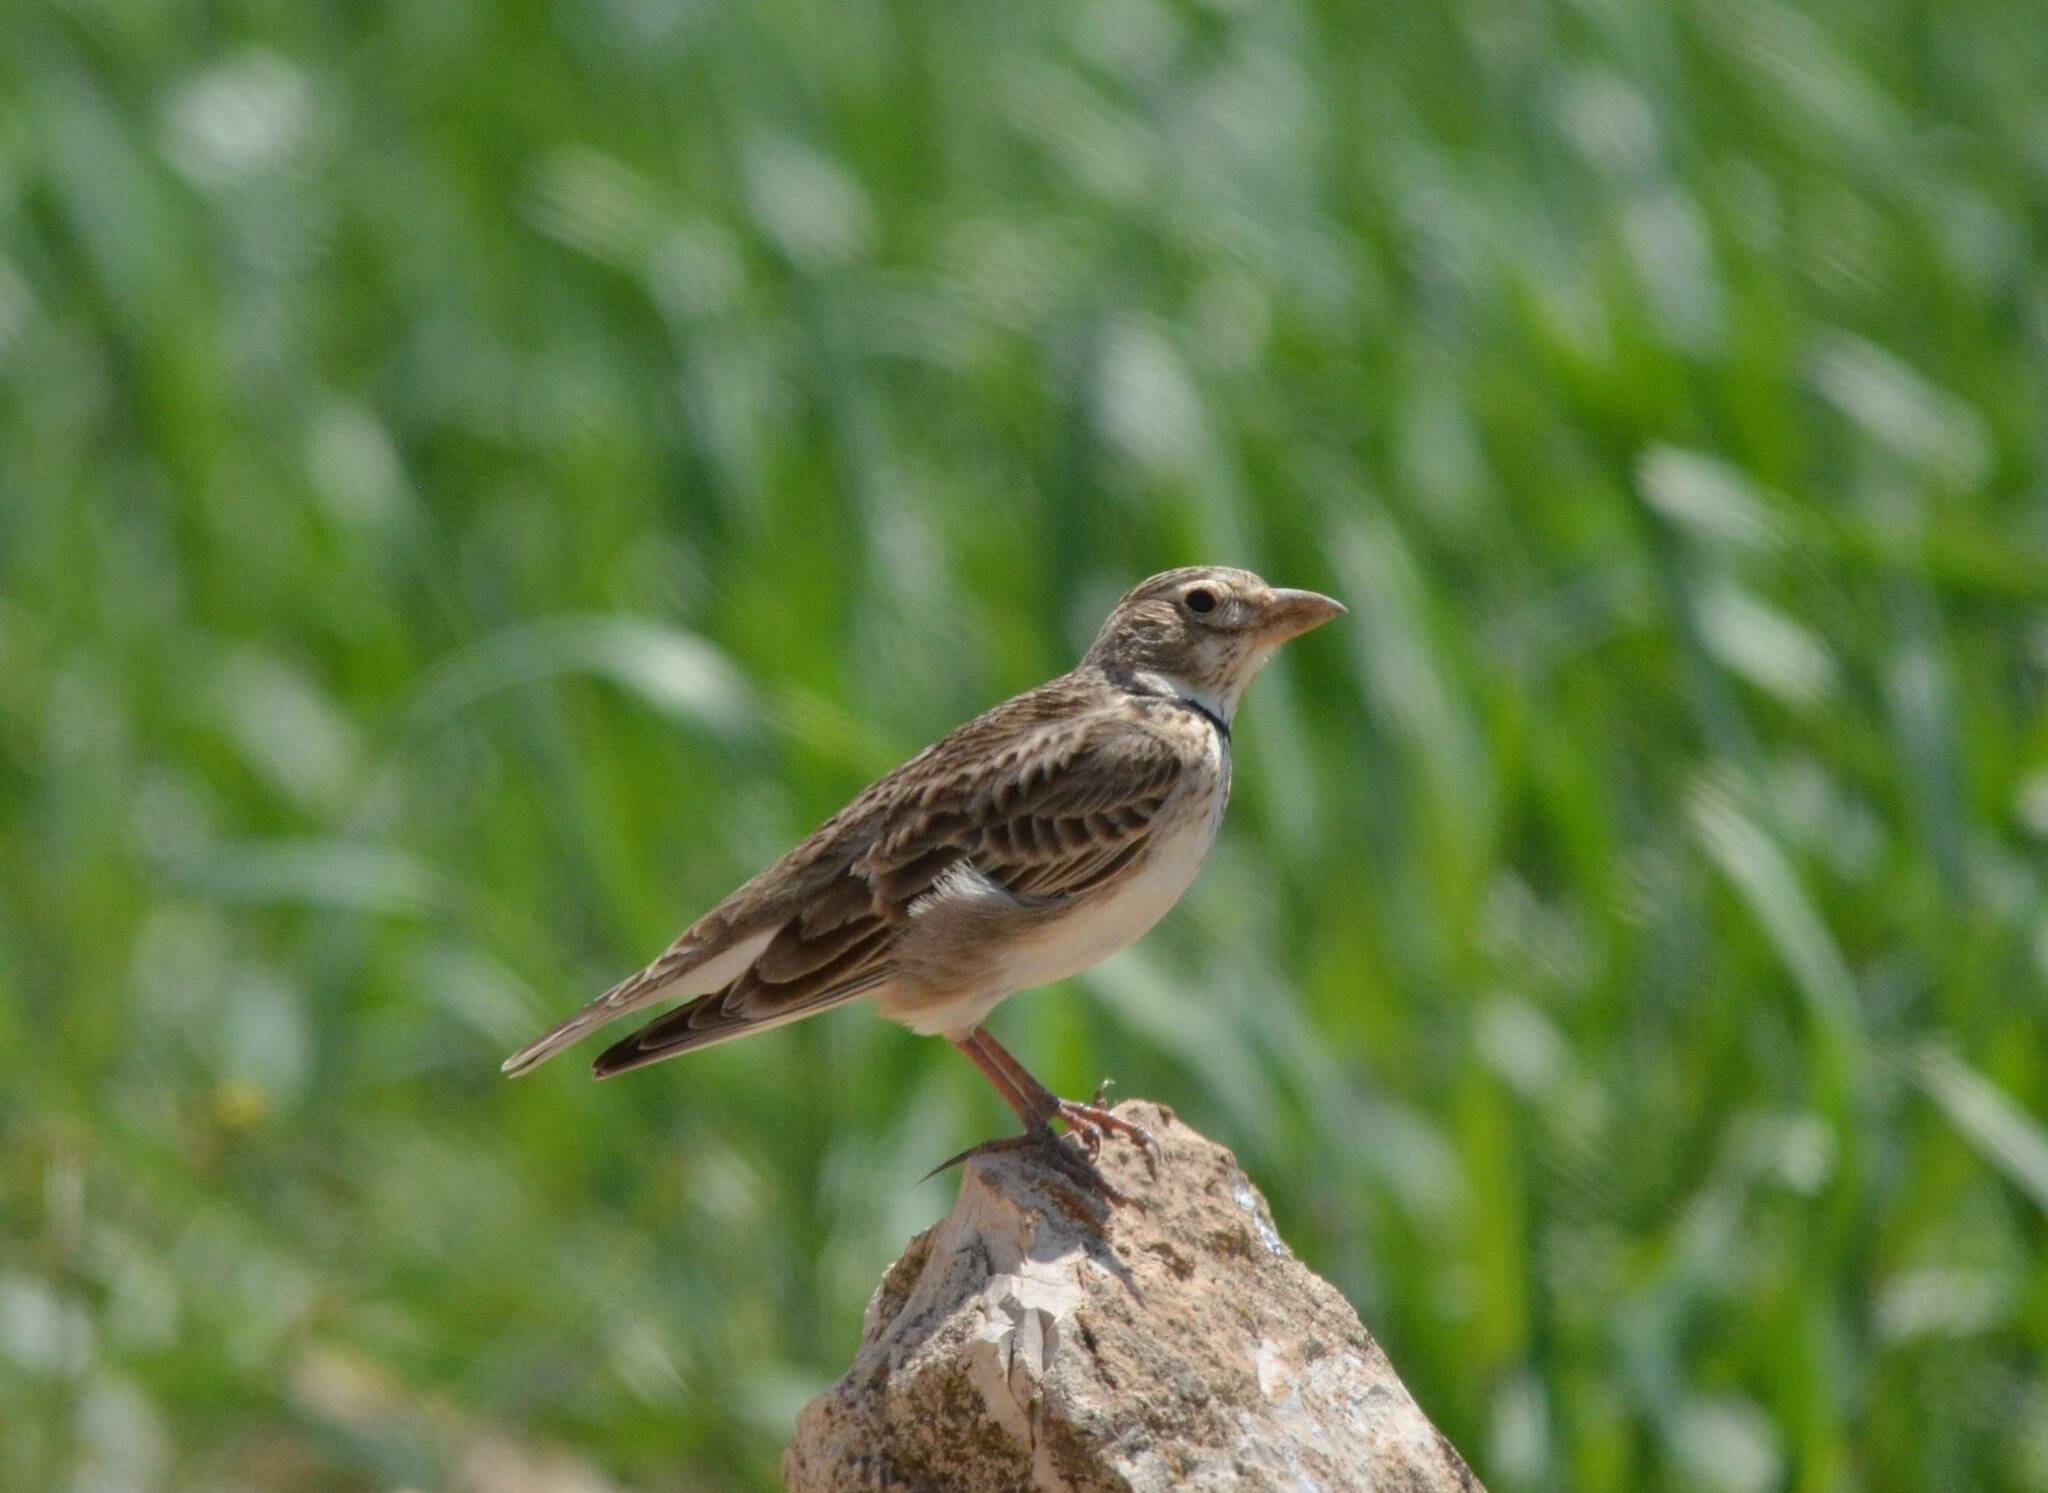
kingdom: Animalia
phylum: Chordata
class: Aves
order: Passeriformes
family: Alaudidae
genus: Melanocorypha
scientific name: Melanocorypha calandra
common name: Calandra lark
